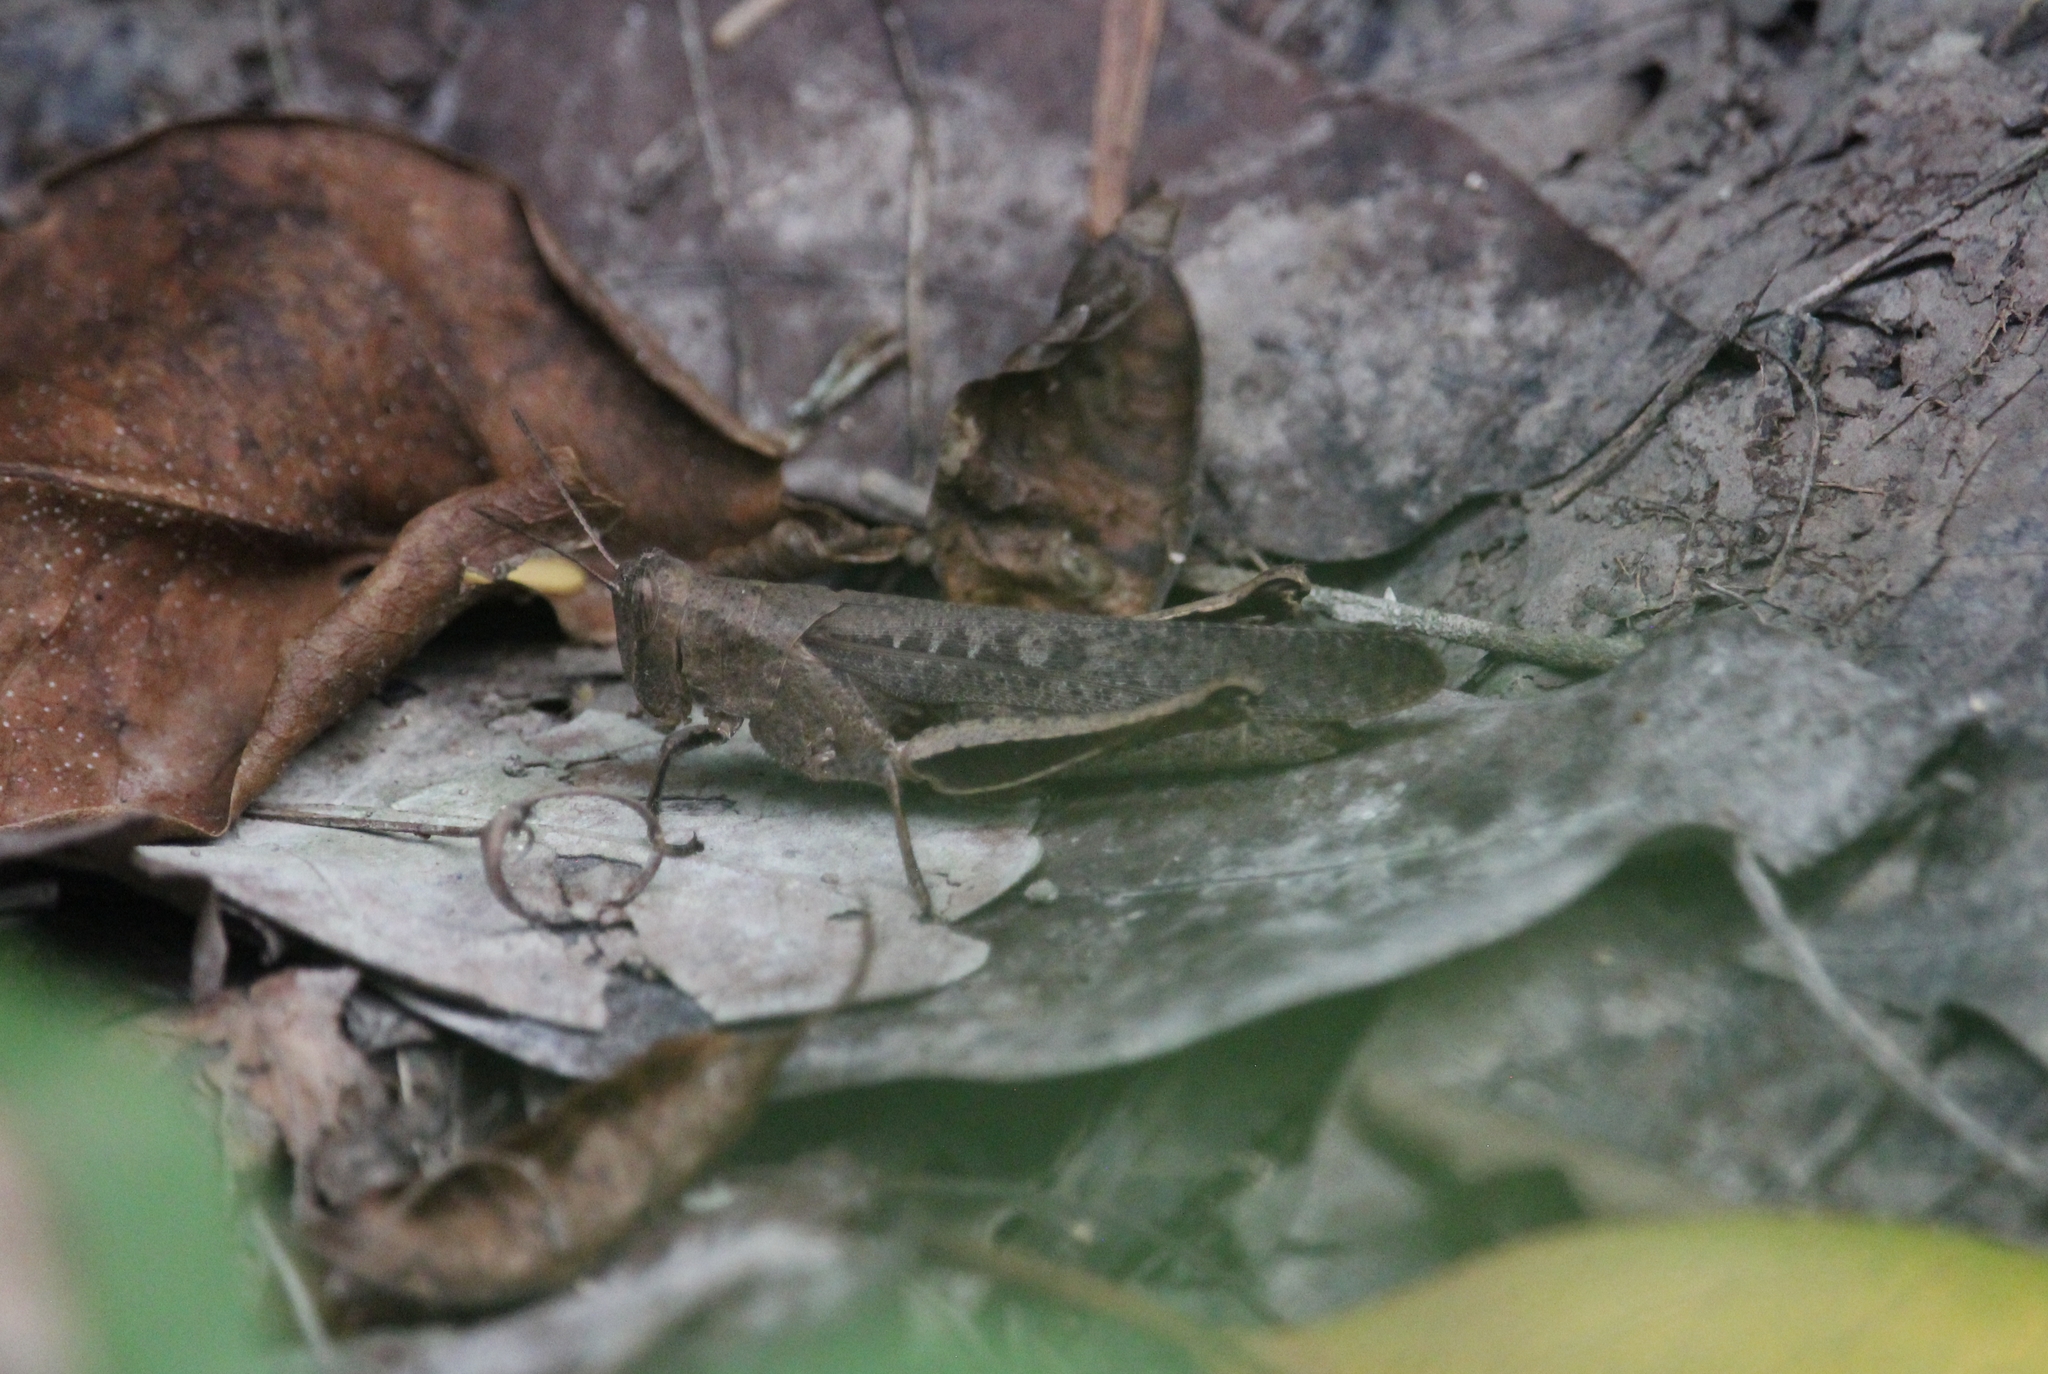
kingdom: Animalia
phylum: Arthropoda
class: Insecta
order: Orthoptera
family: Acrididae
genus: Abracris
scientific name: Abracris flavolineata
